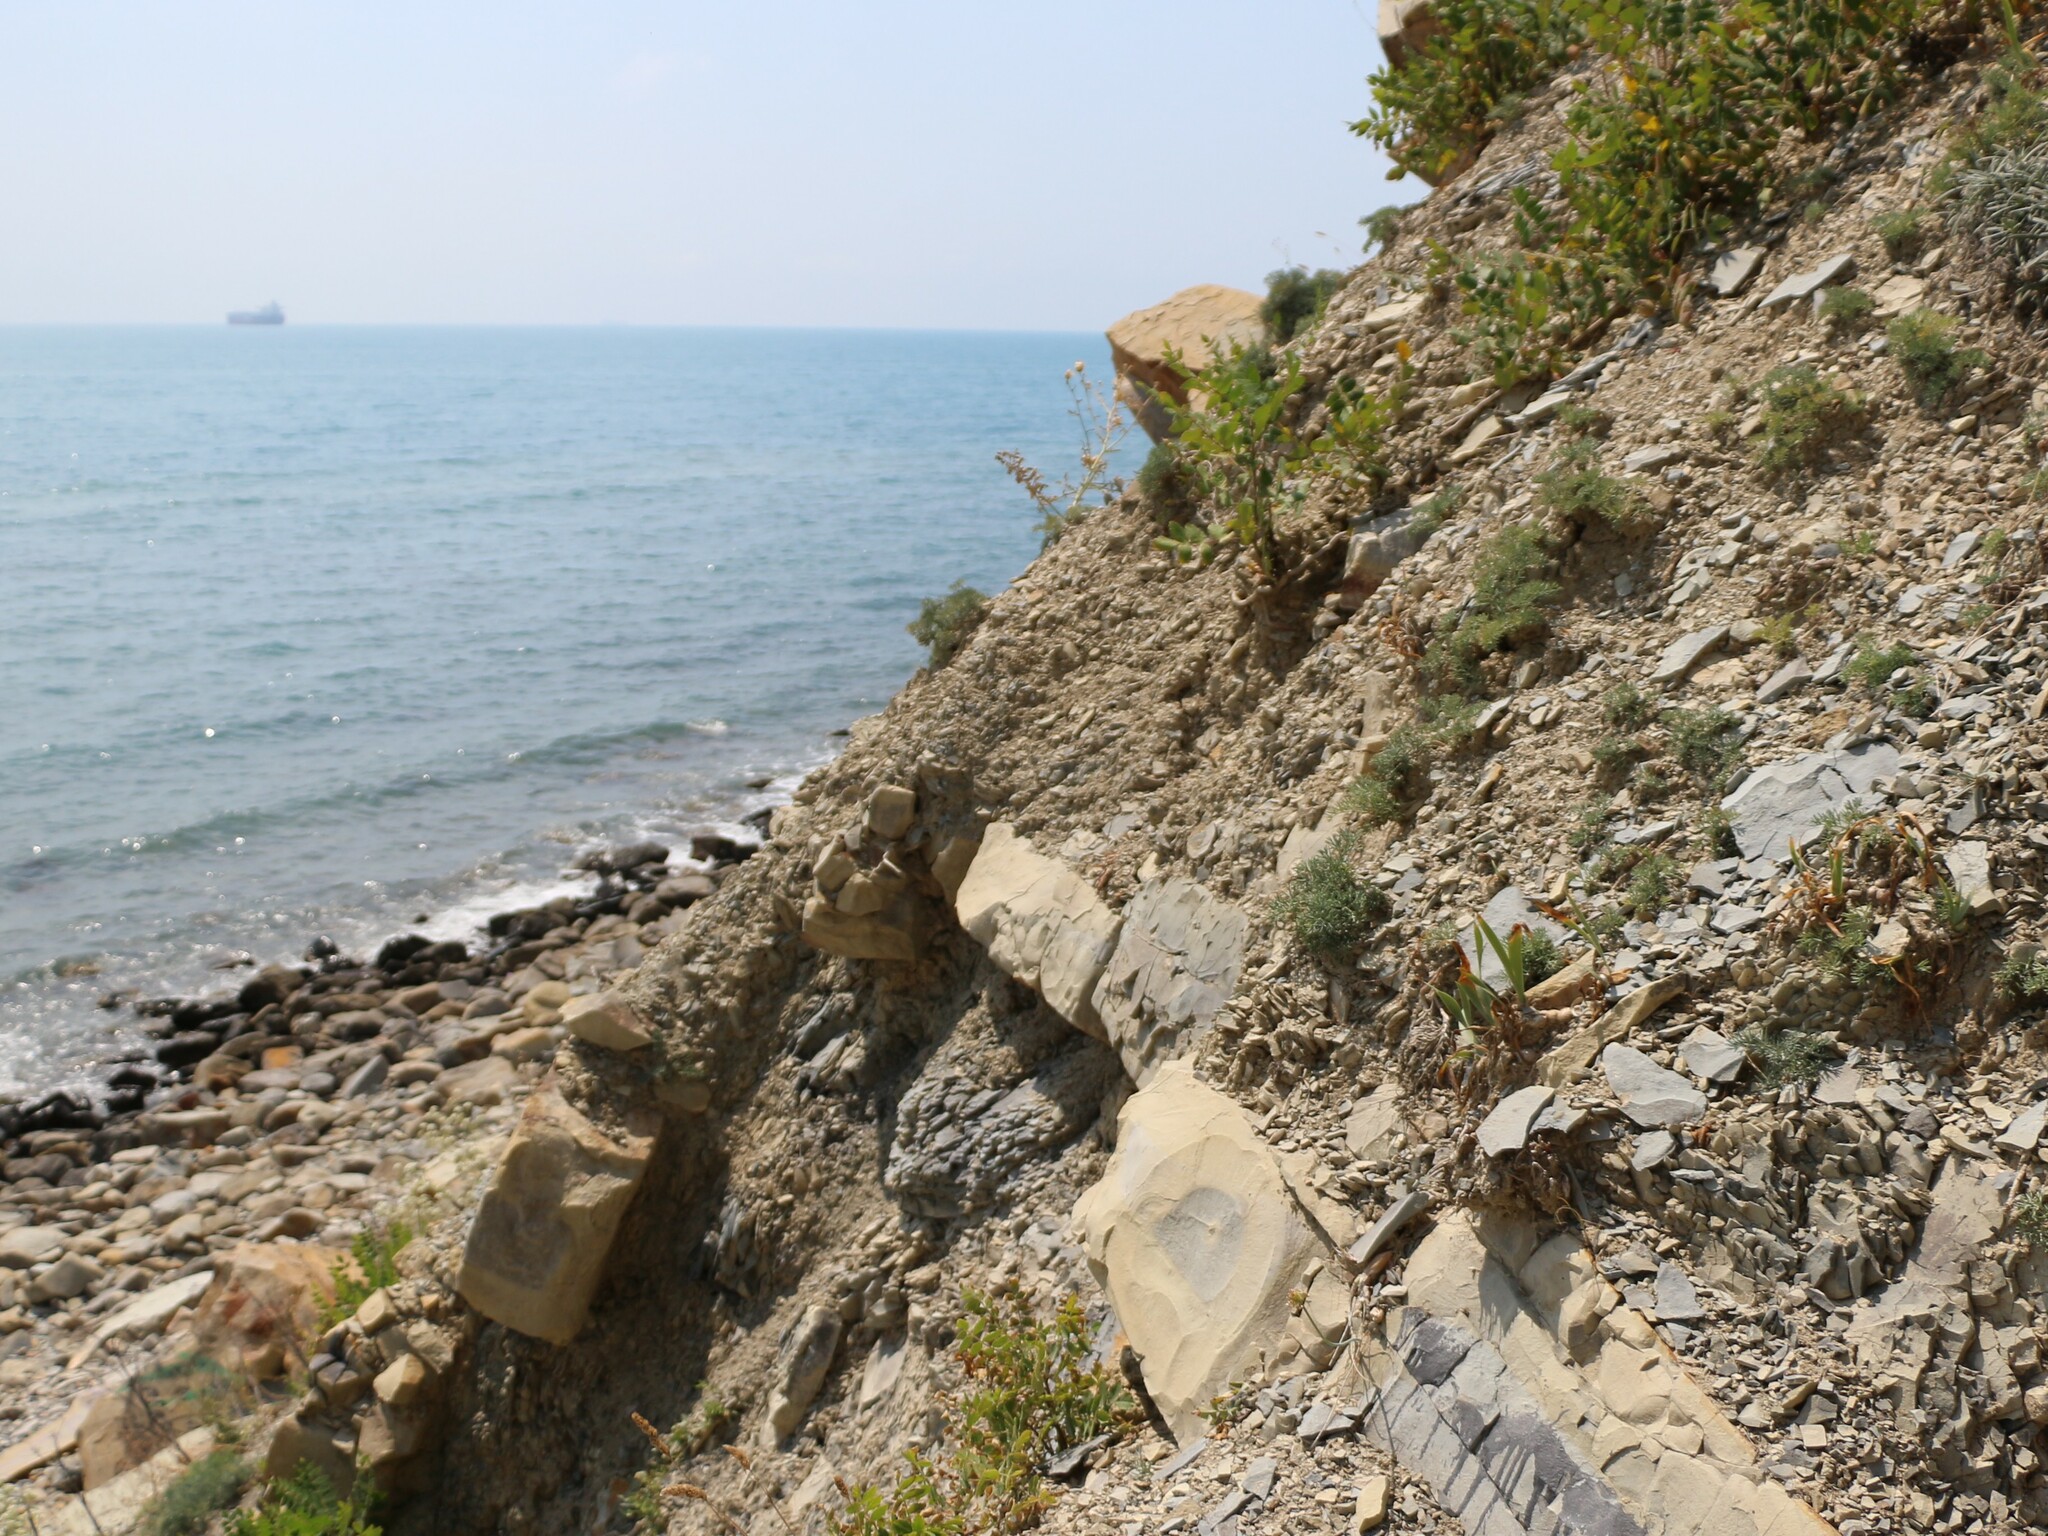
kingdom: Plantae
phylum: Tracheophyta
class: Liliopsida
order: Asparagales
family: Iridaceae
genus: Iris
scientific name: Iris pumila
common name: Dwarf iris
